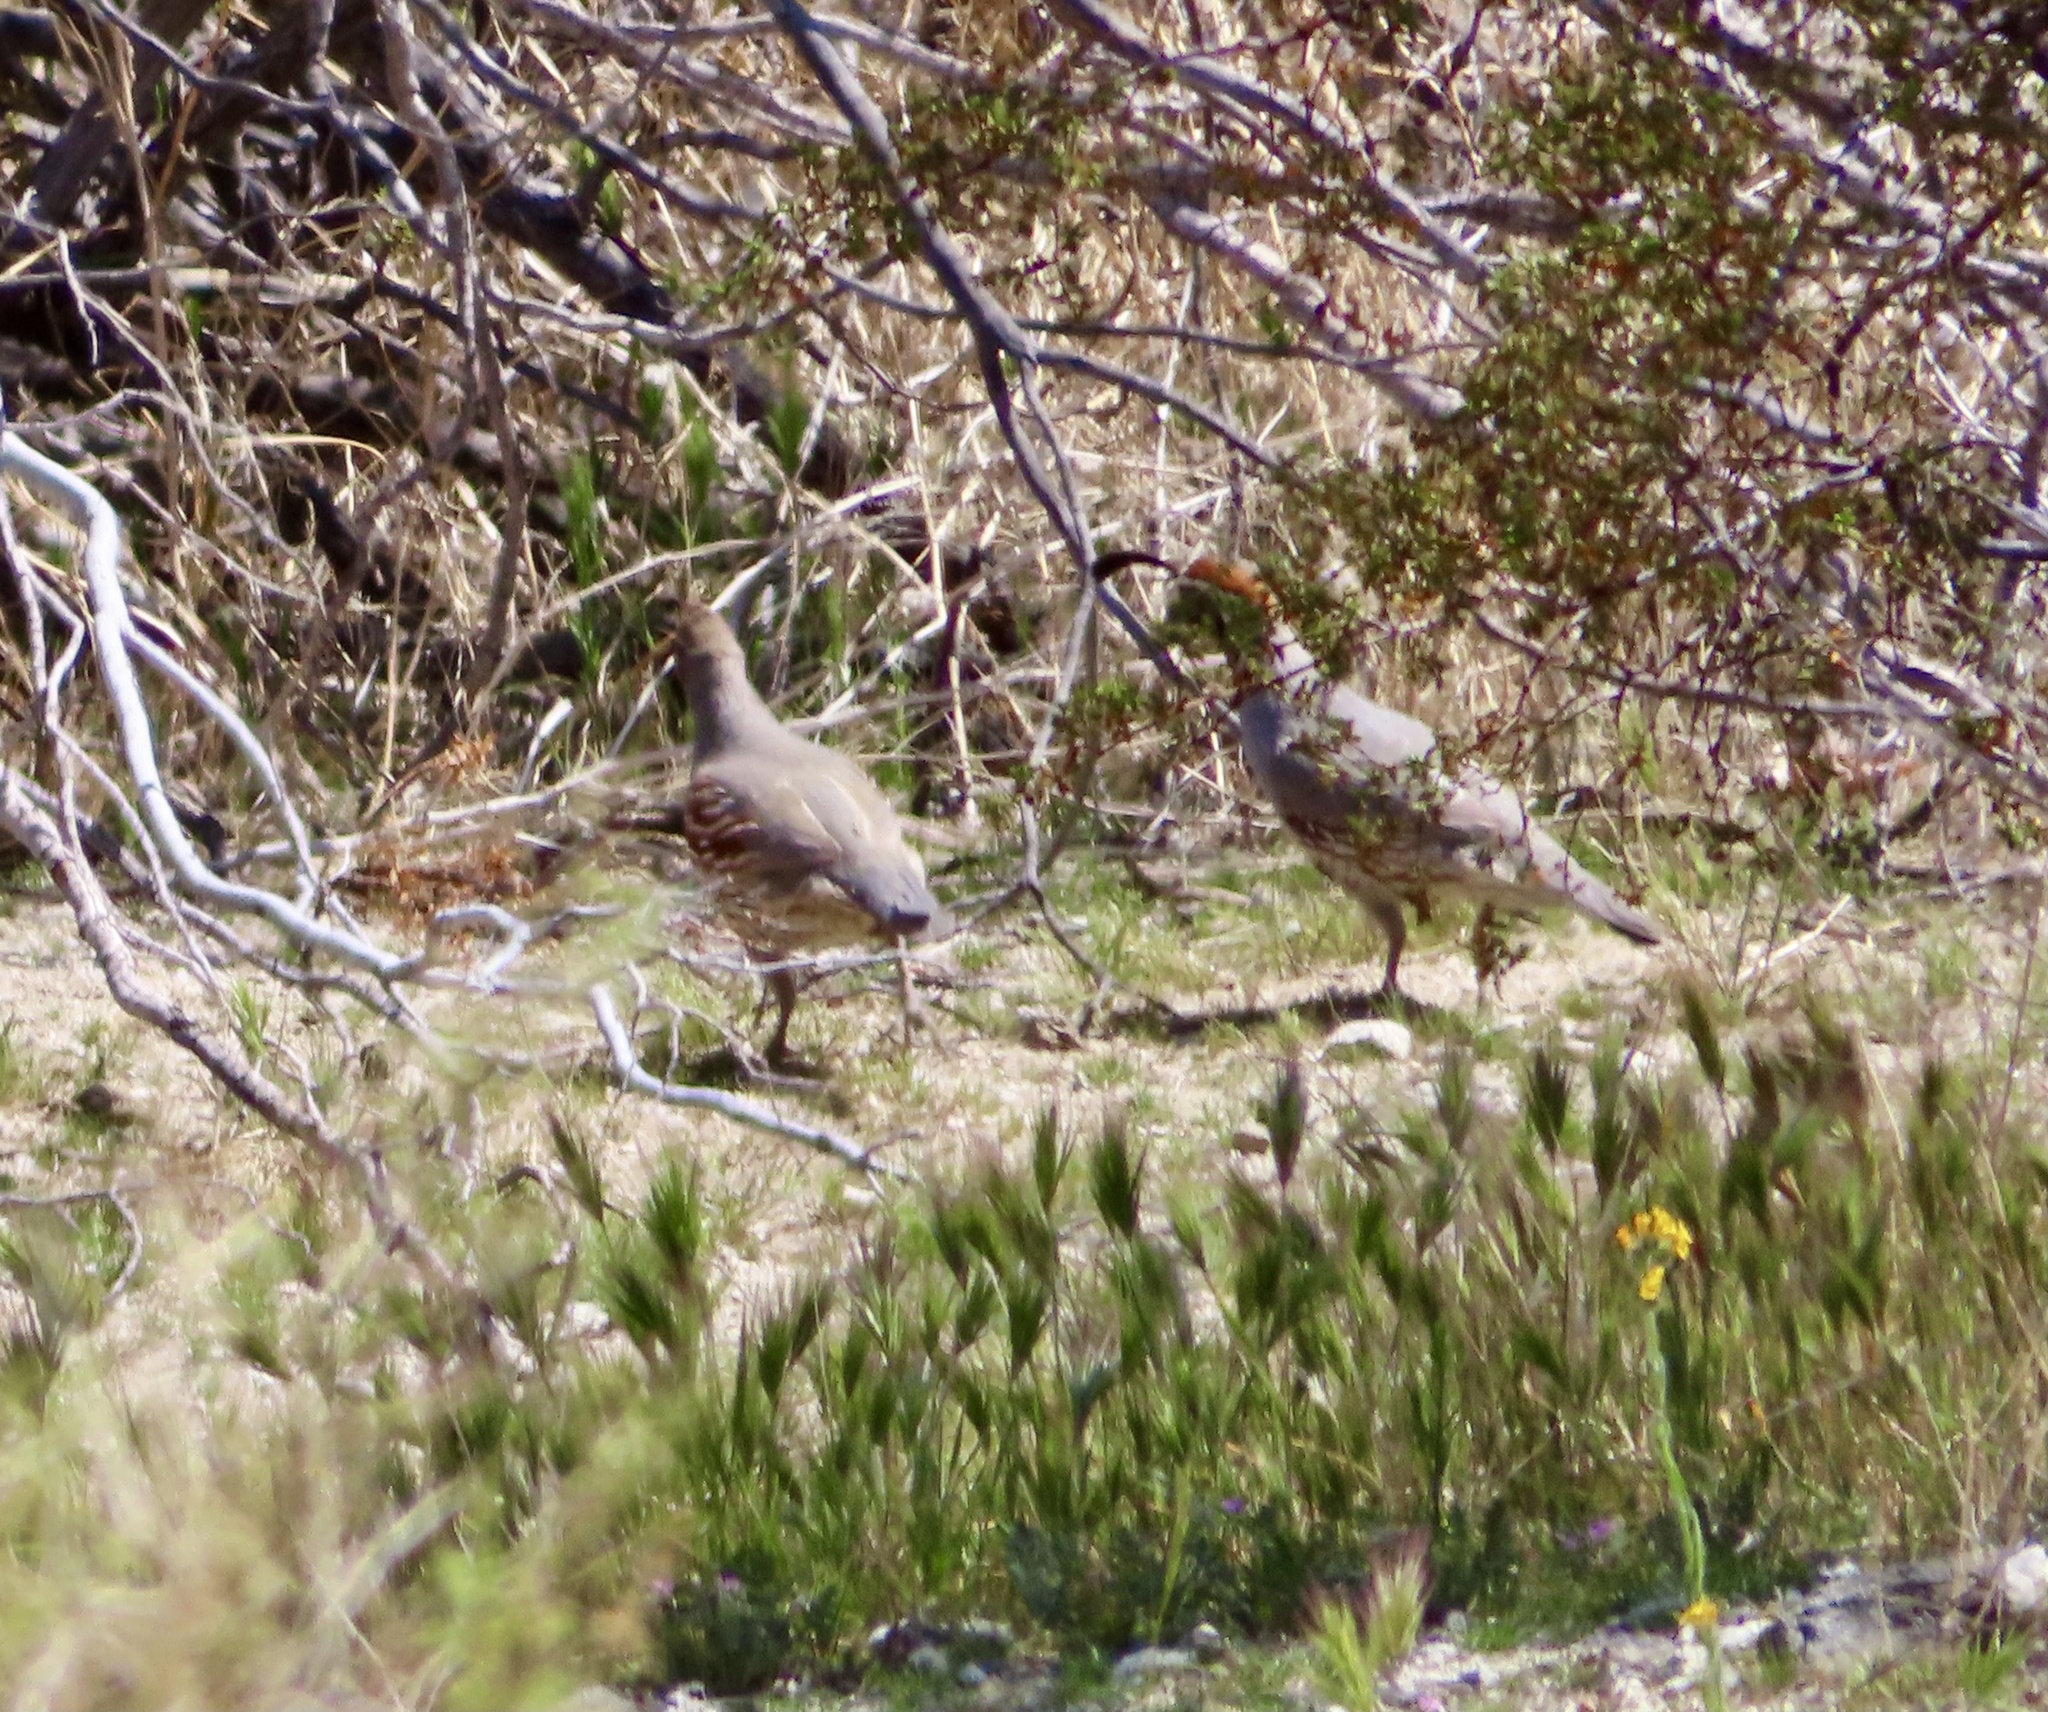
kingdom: Animalia
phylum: Chordata
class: Aves
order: Galliformes
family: Odontophoridae
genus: Callipepla
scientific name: Callipepla gambelii
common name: Gambel's quail
